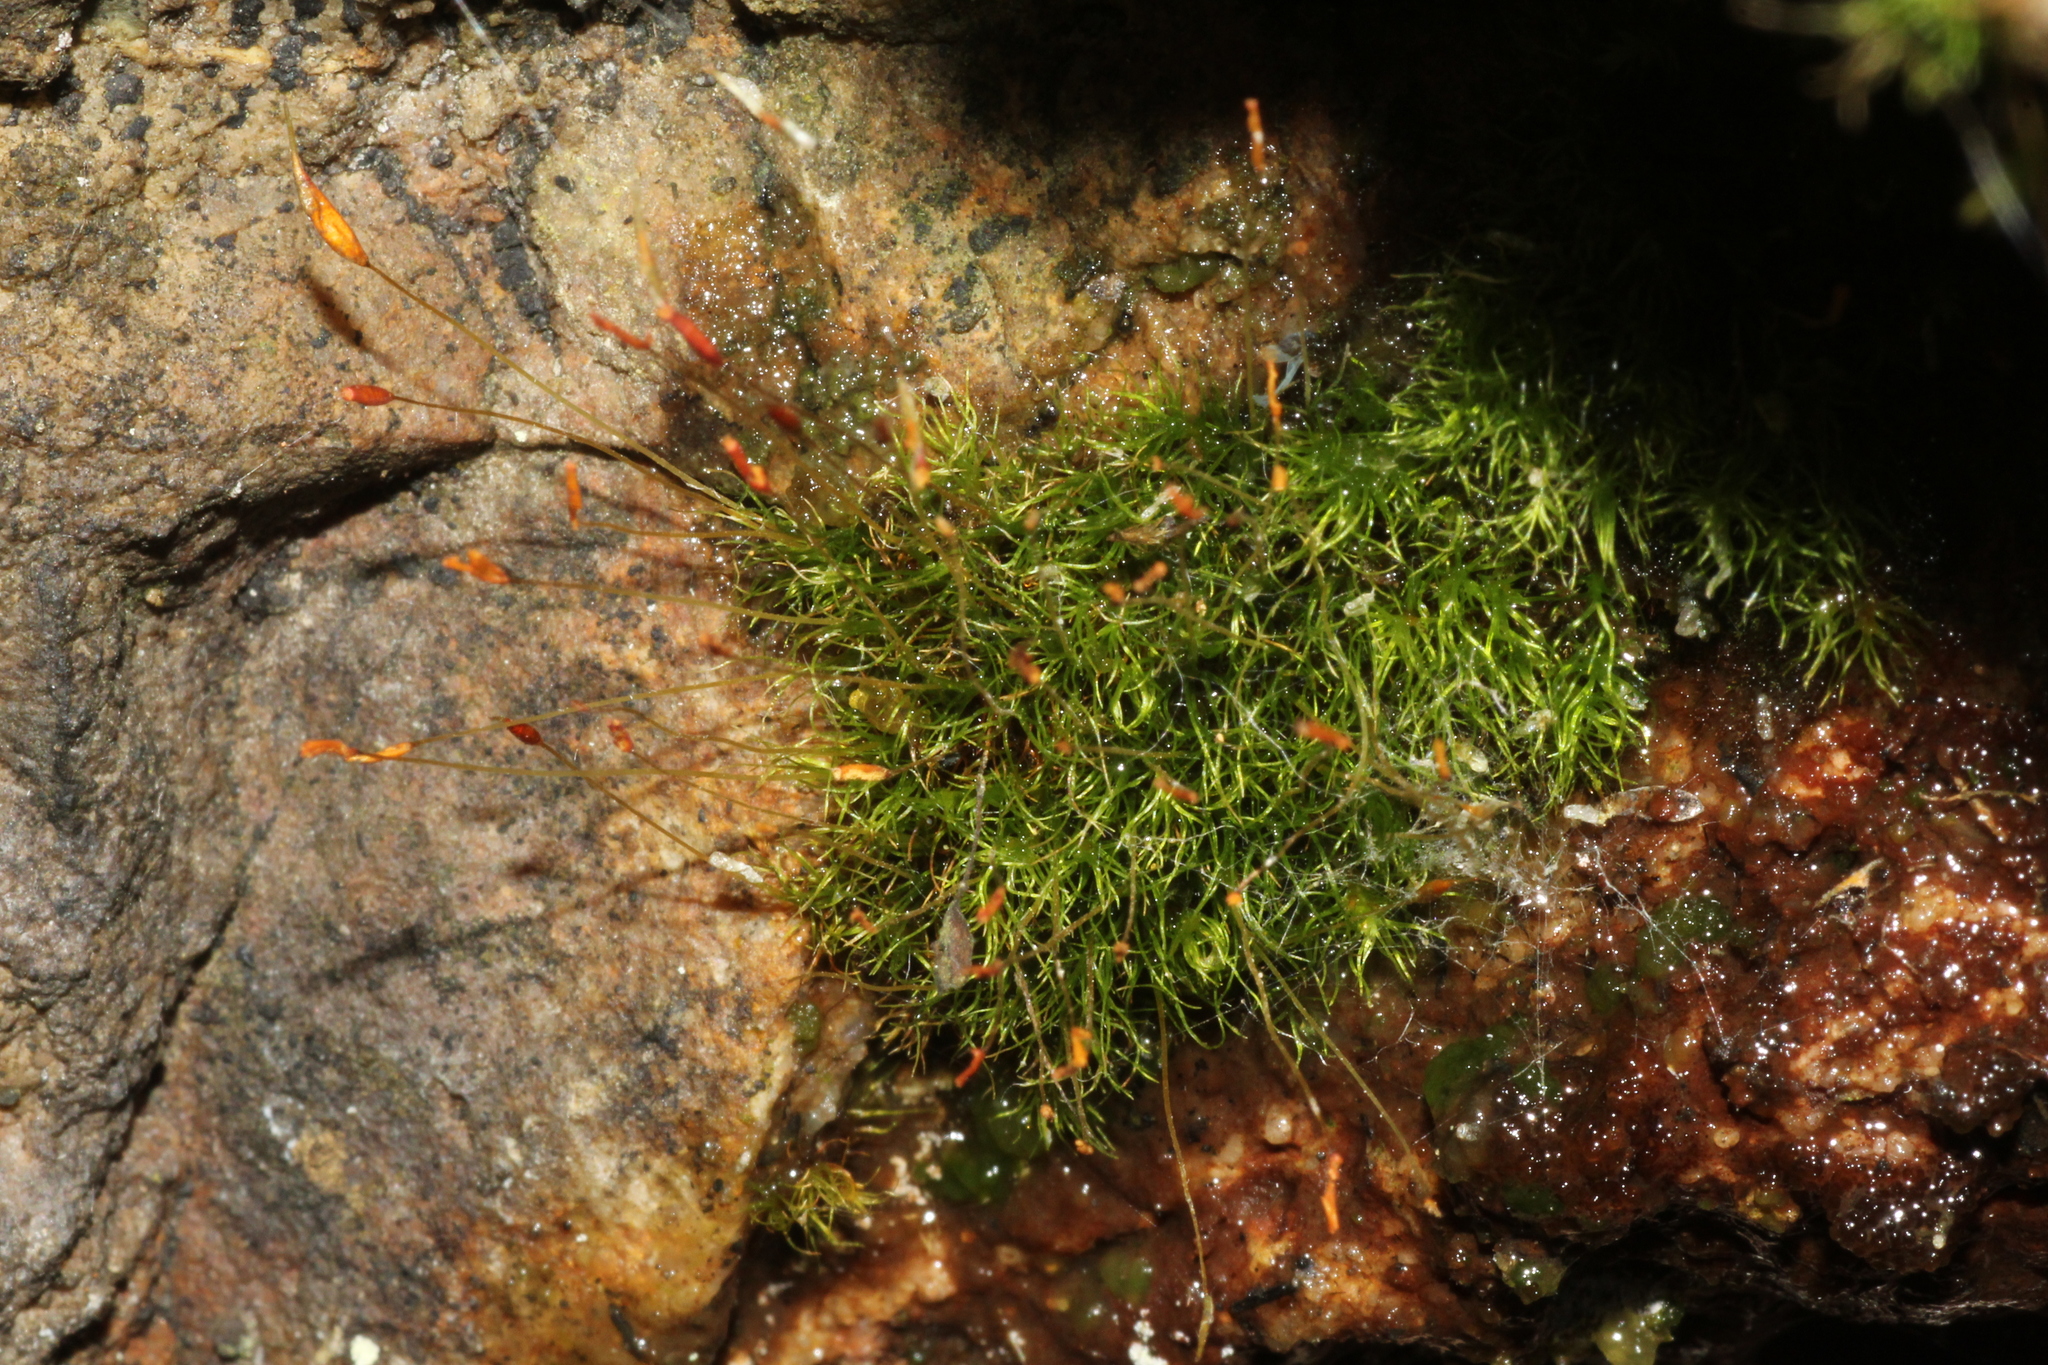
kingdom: Plantae
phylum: Bryophyta
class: Bryopsida
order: Dicranales
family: Dicranaceae
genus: Dicranoloma
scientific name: Dicranoloma diaphanoneuron
